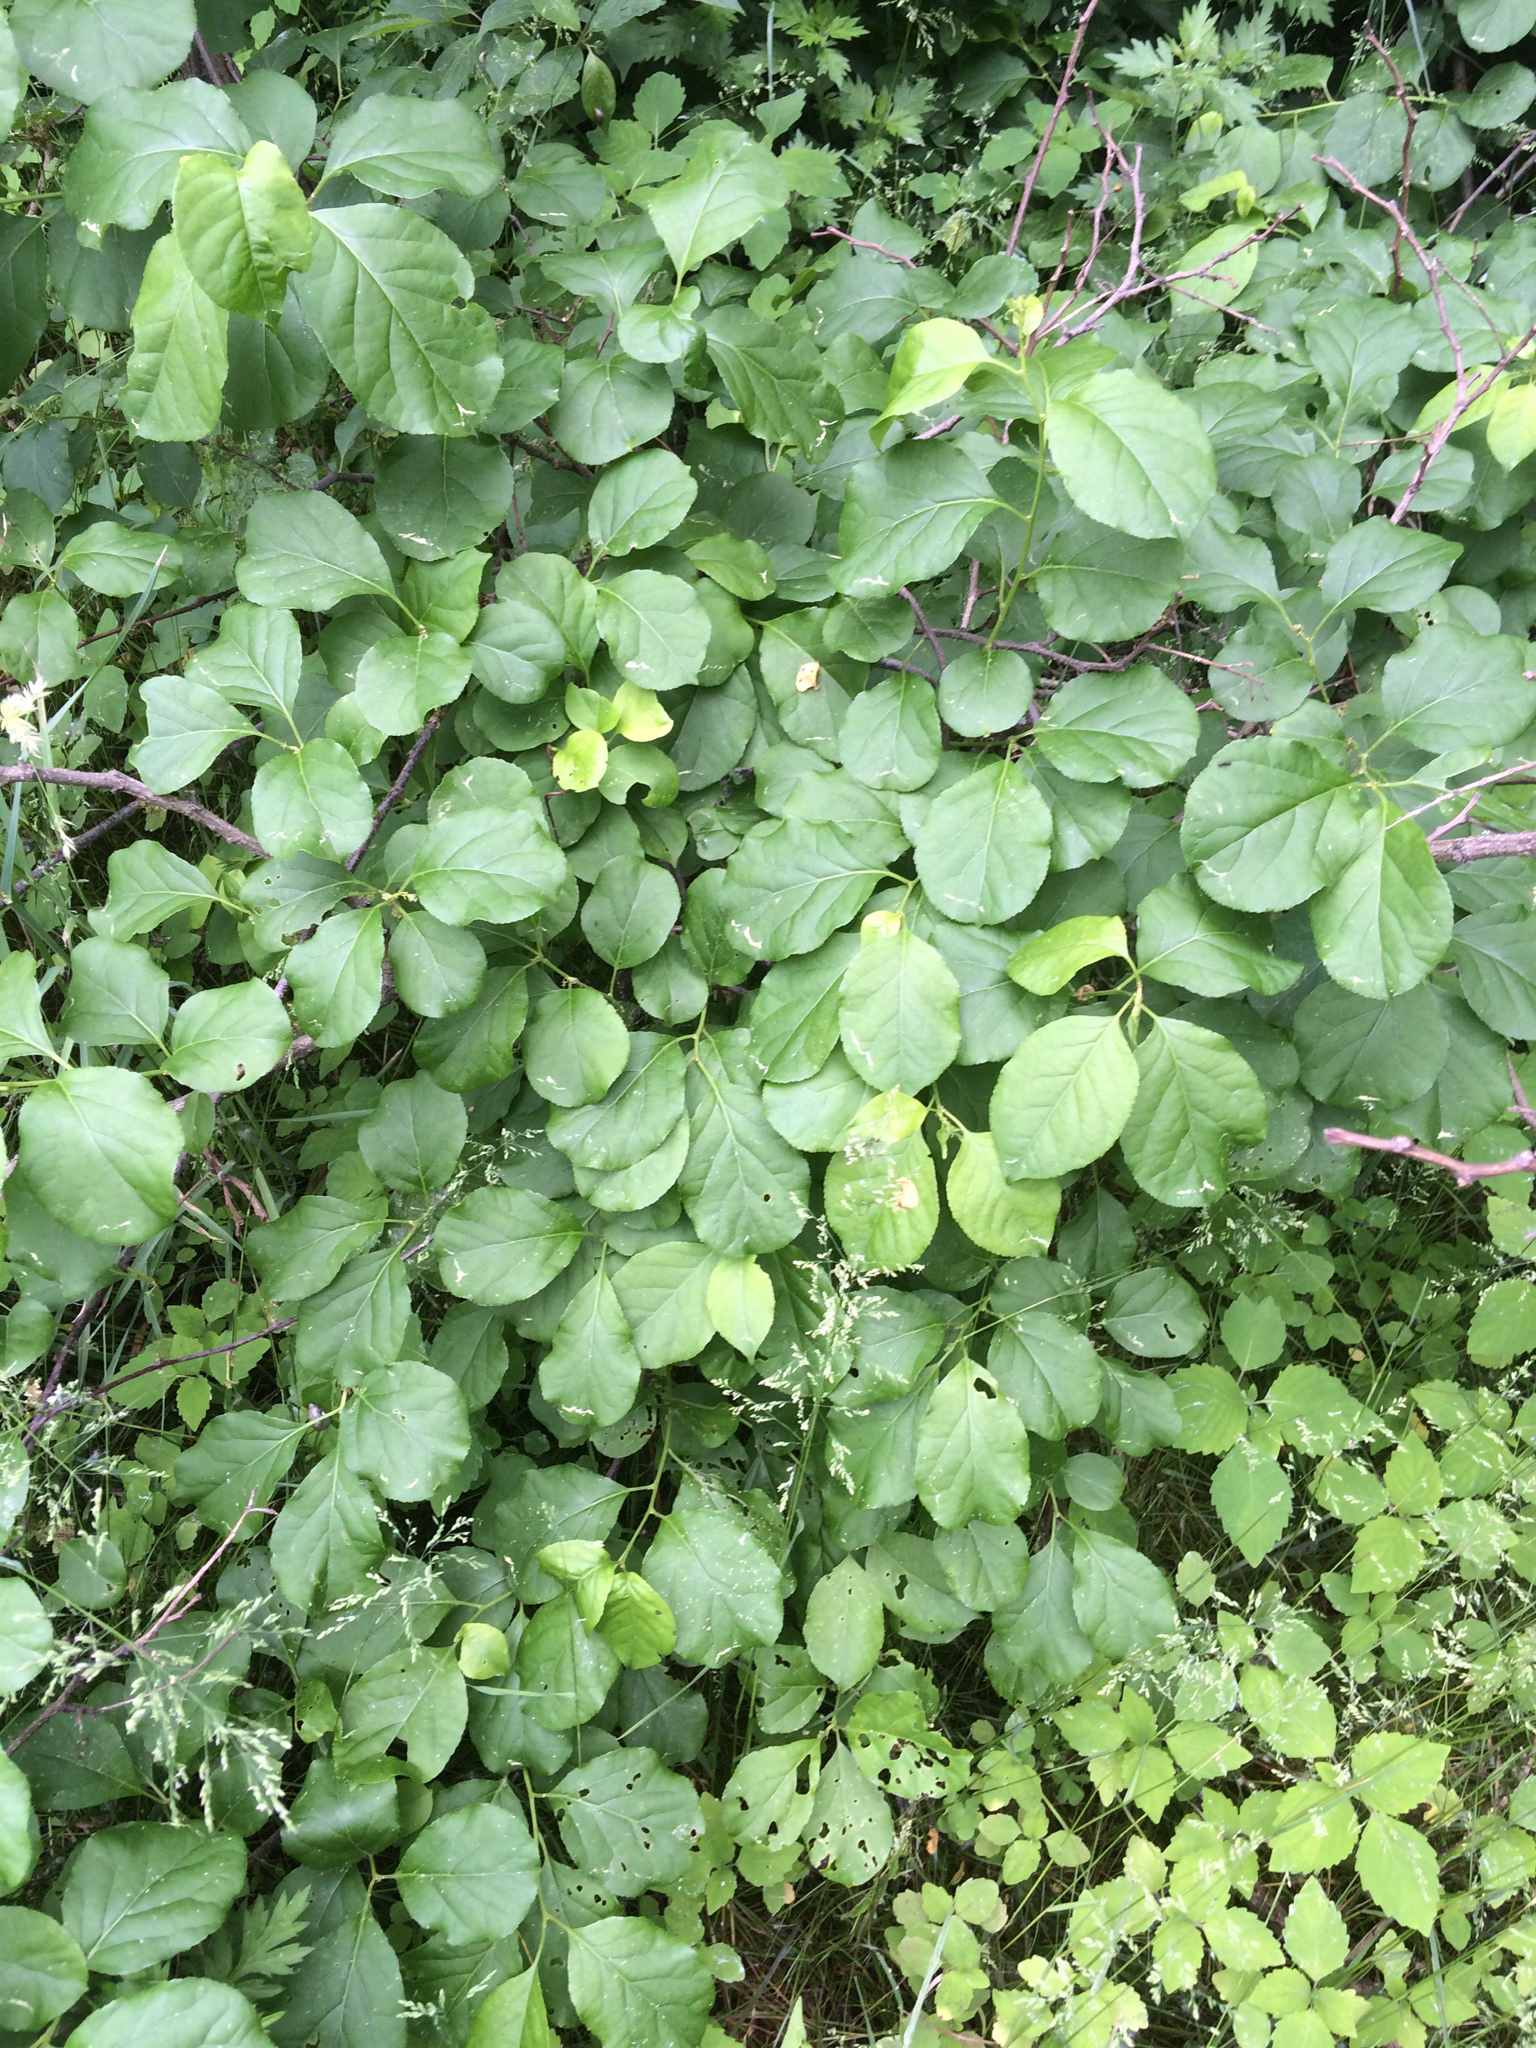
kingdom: Plantae
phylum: Tracheophyta
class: Magnoliopsida
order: Celastrales
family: Celastraceae
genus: Celastrus
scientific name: Celastrus orbiculatus
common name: Oriental bittersweet
